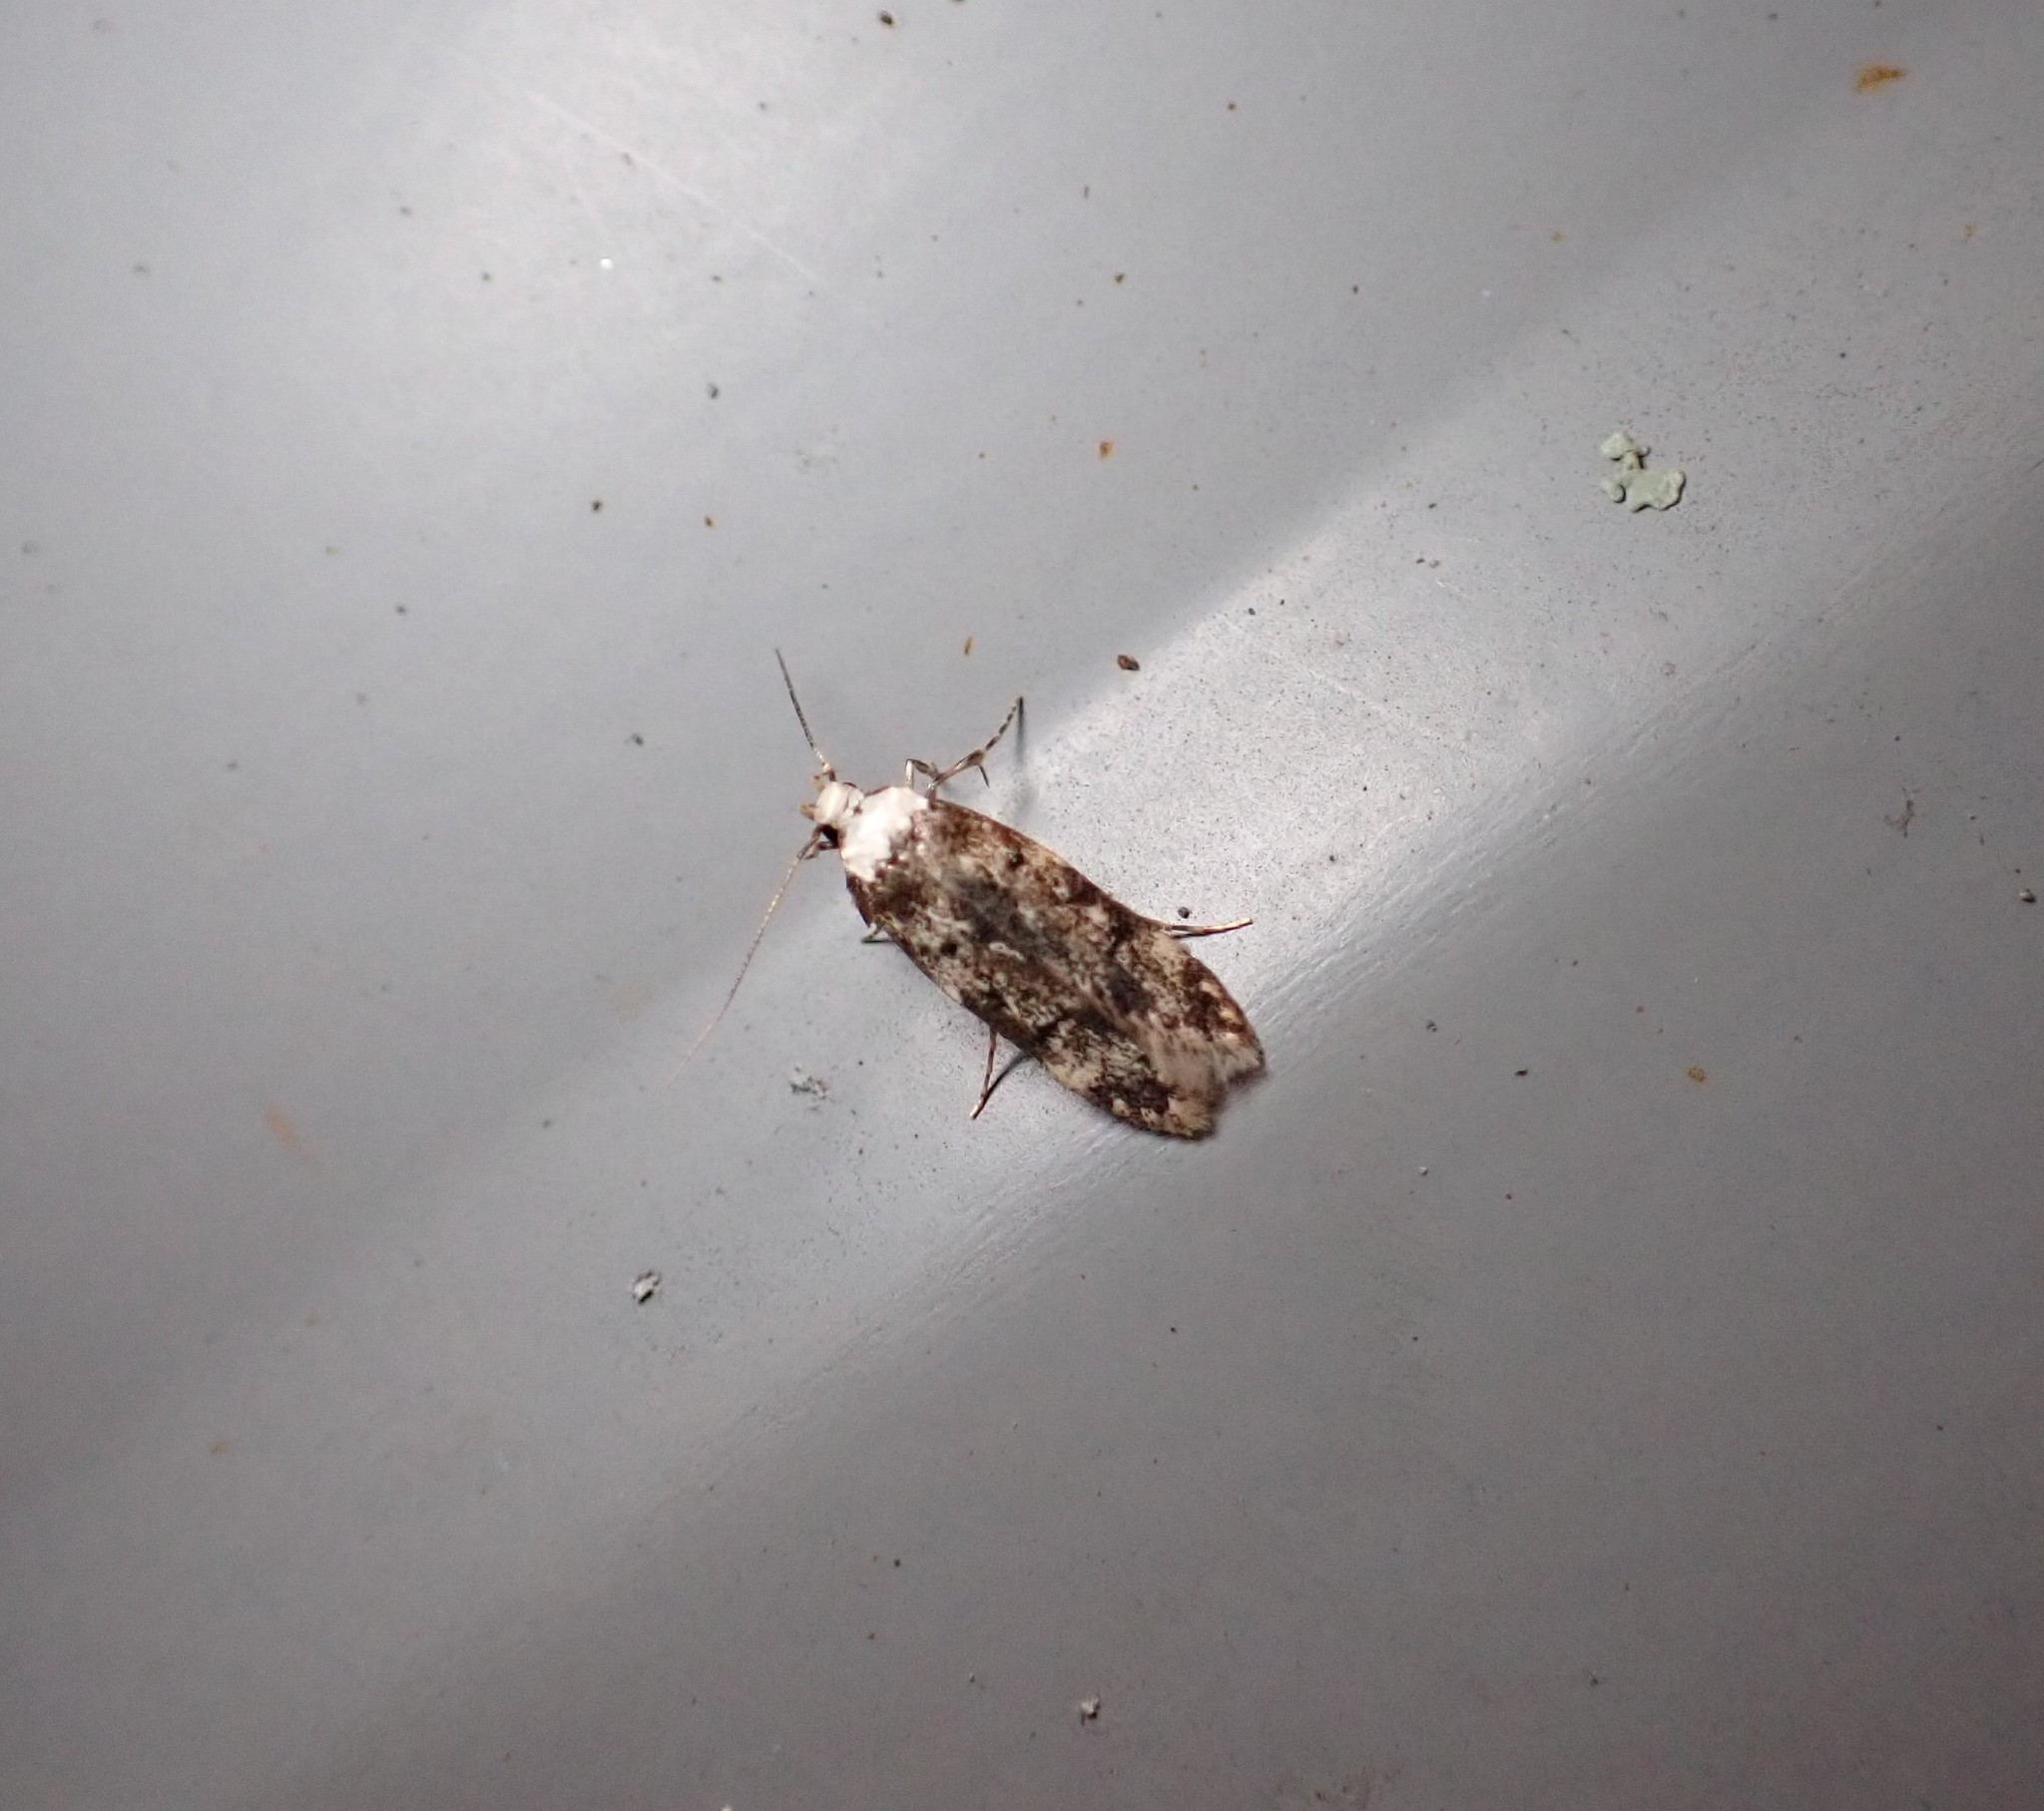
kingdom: Animalia
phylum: Arthropoda
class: Insecta
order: Lepidoptera
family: Oecophoridae
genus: Endrosis
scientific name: Endrosis sarcitrella
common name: White-shouldered house moth
